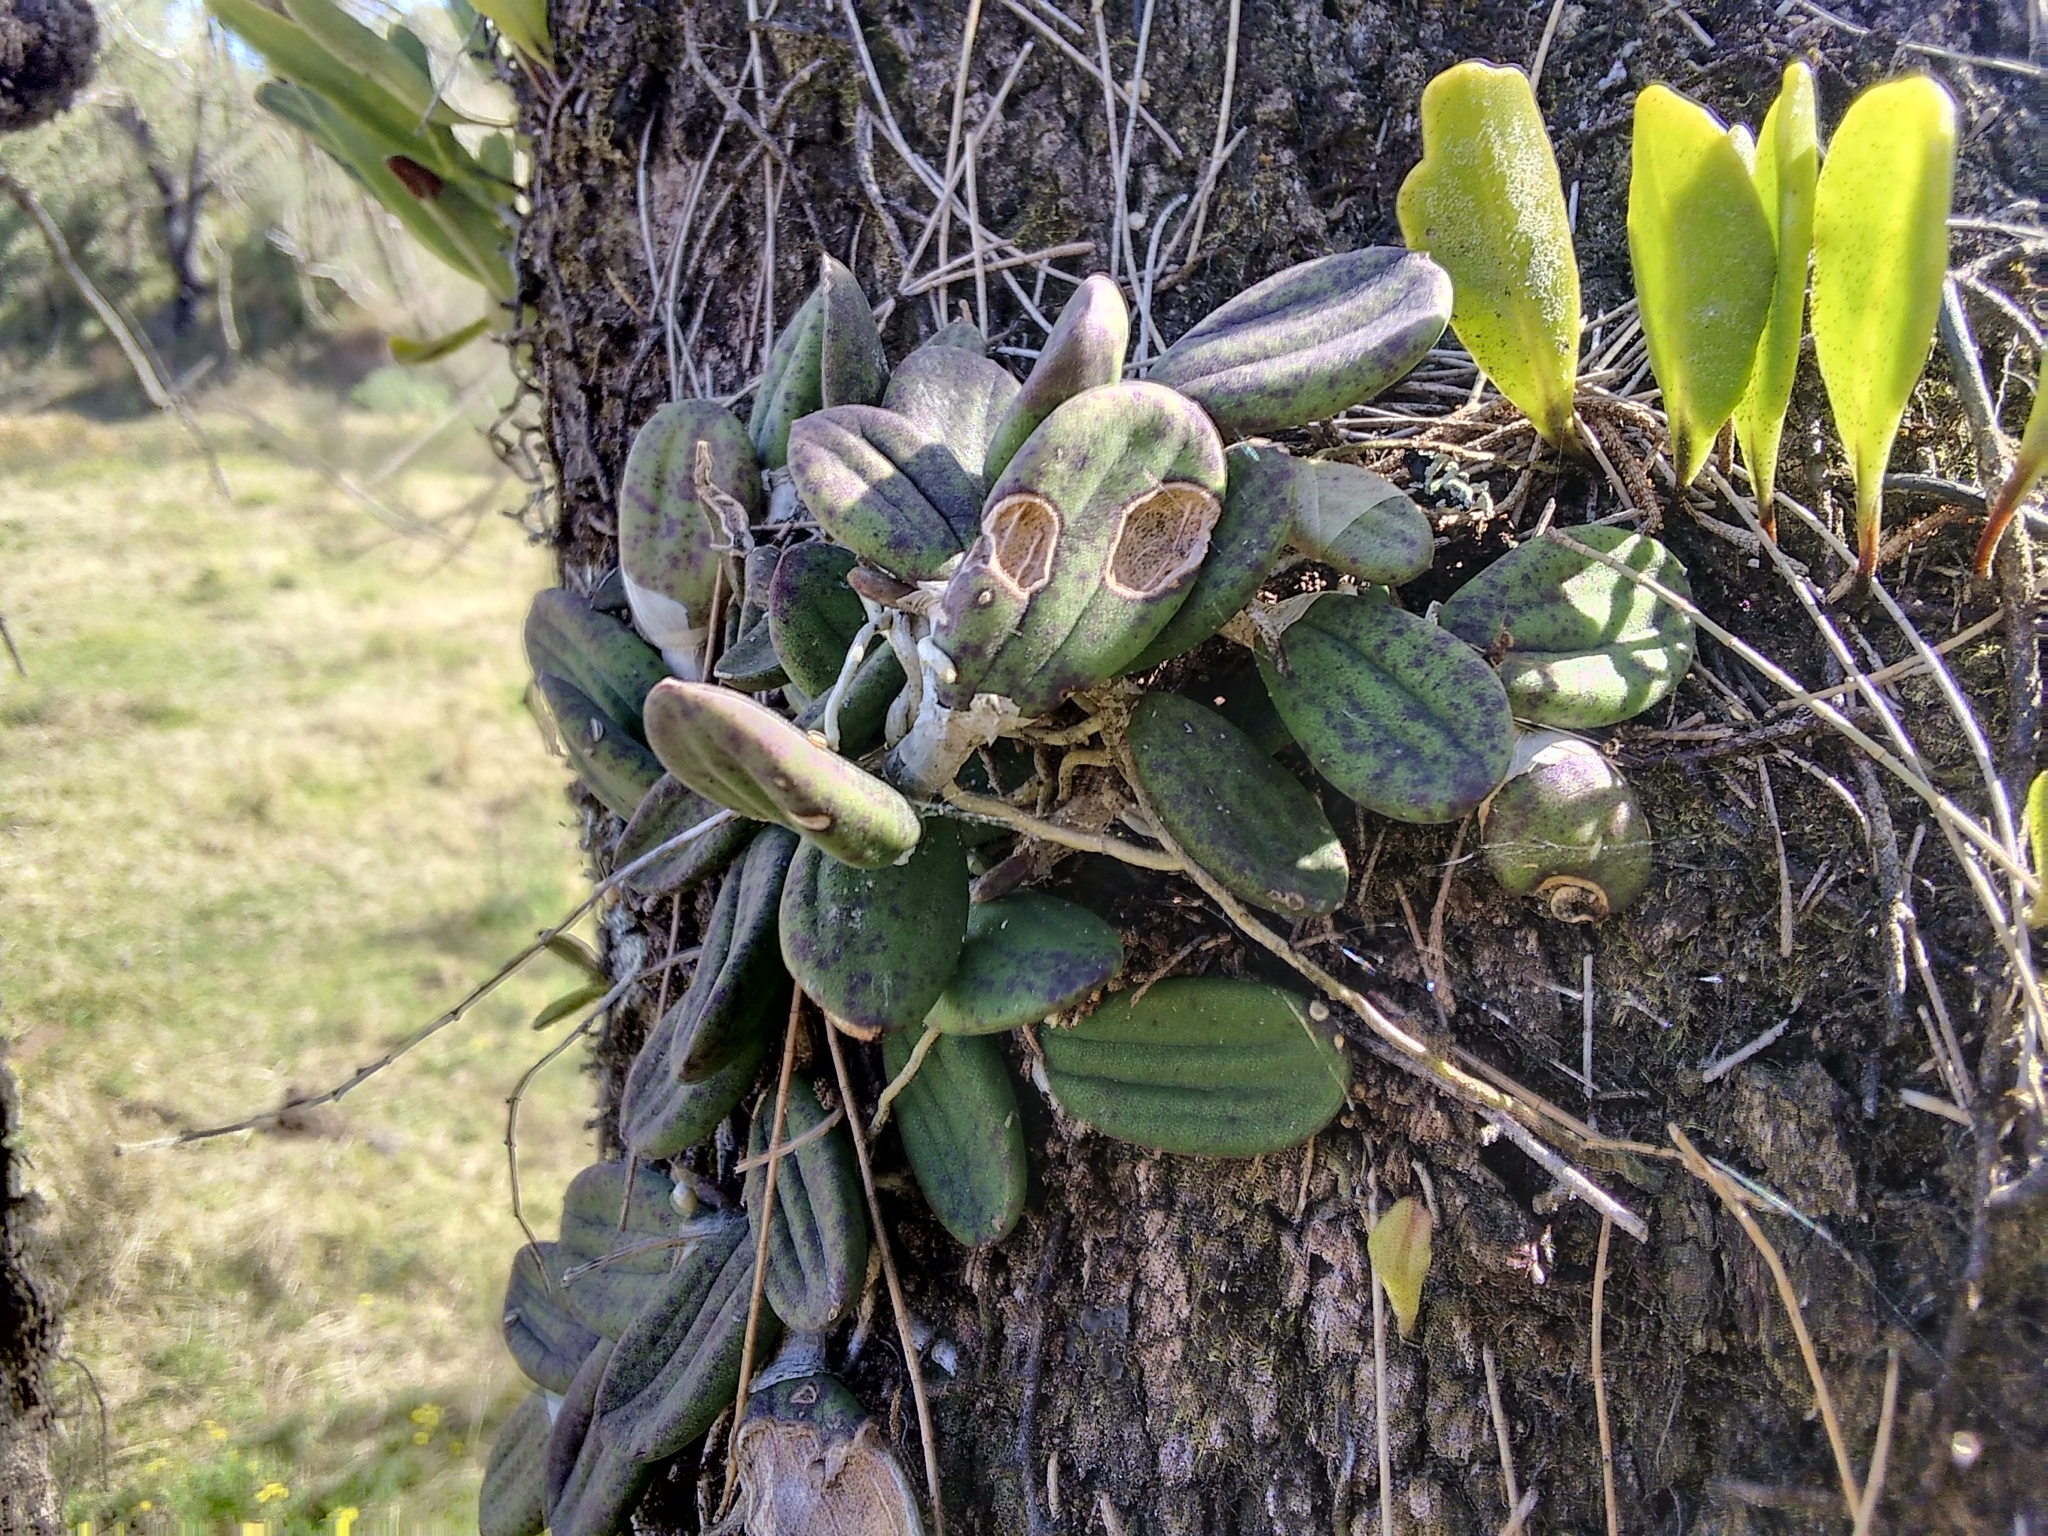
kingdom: Plantae
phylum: Tracheophyta
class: Liliopsida
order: Asparagales
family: Orchidaceae
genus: Dendrobium
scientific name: Dendrobium linguiforme
